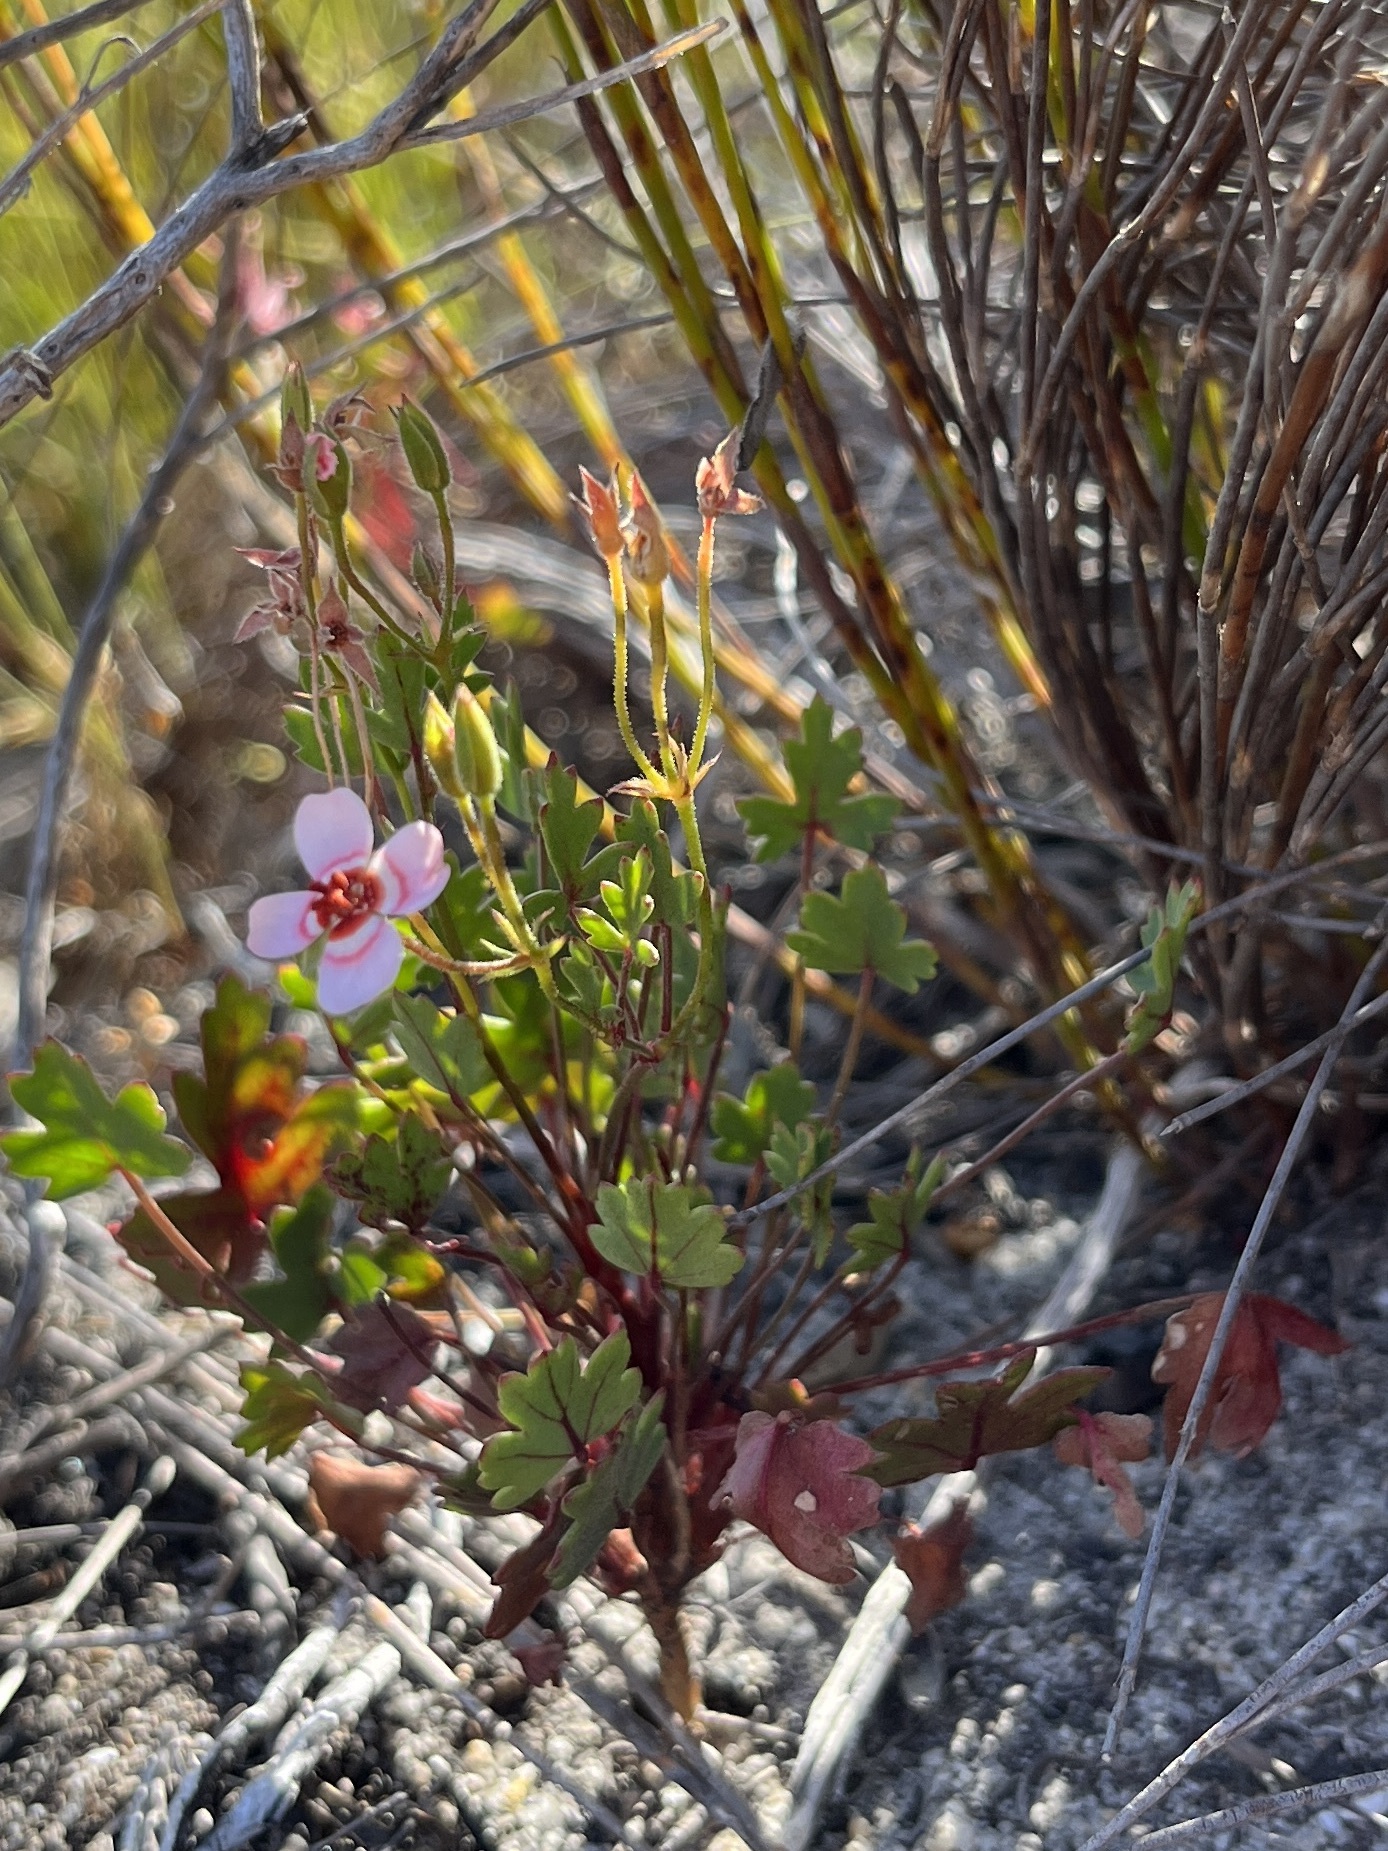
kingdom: Plantae
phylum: Tracheophyta
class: Magnoliopsida
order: Geraniales
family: Geraniaceae
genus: Pelargonium
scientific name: Pelargonium incarnatum
